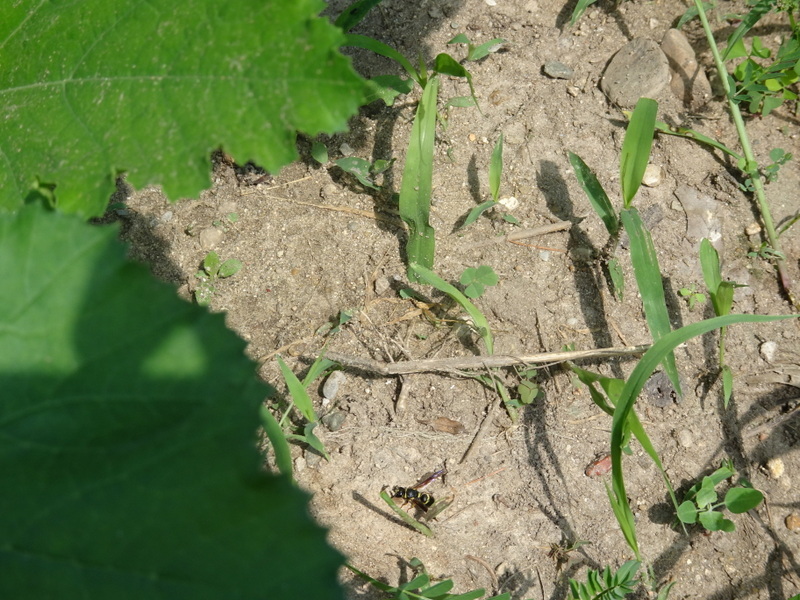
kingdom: Animalia
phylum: Arthropoda
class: Insecta
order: Hymenoptera
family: Eumenidae
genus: Euodynerus
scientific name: Euodynerus foraminatus
